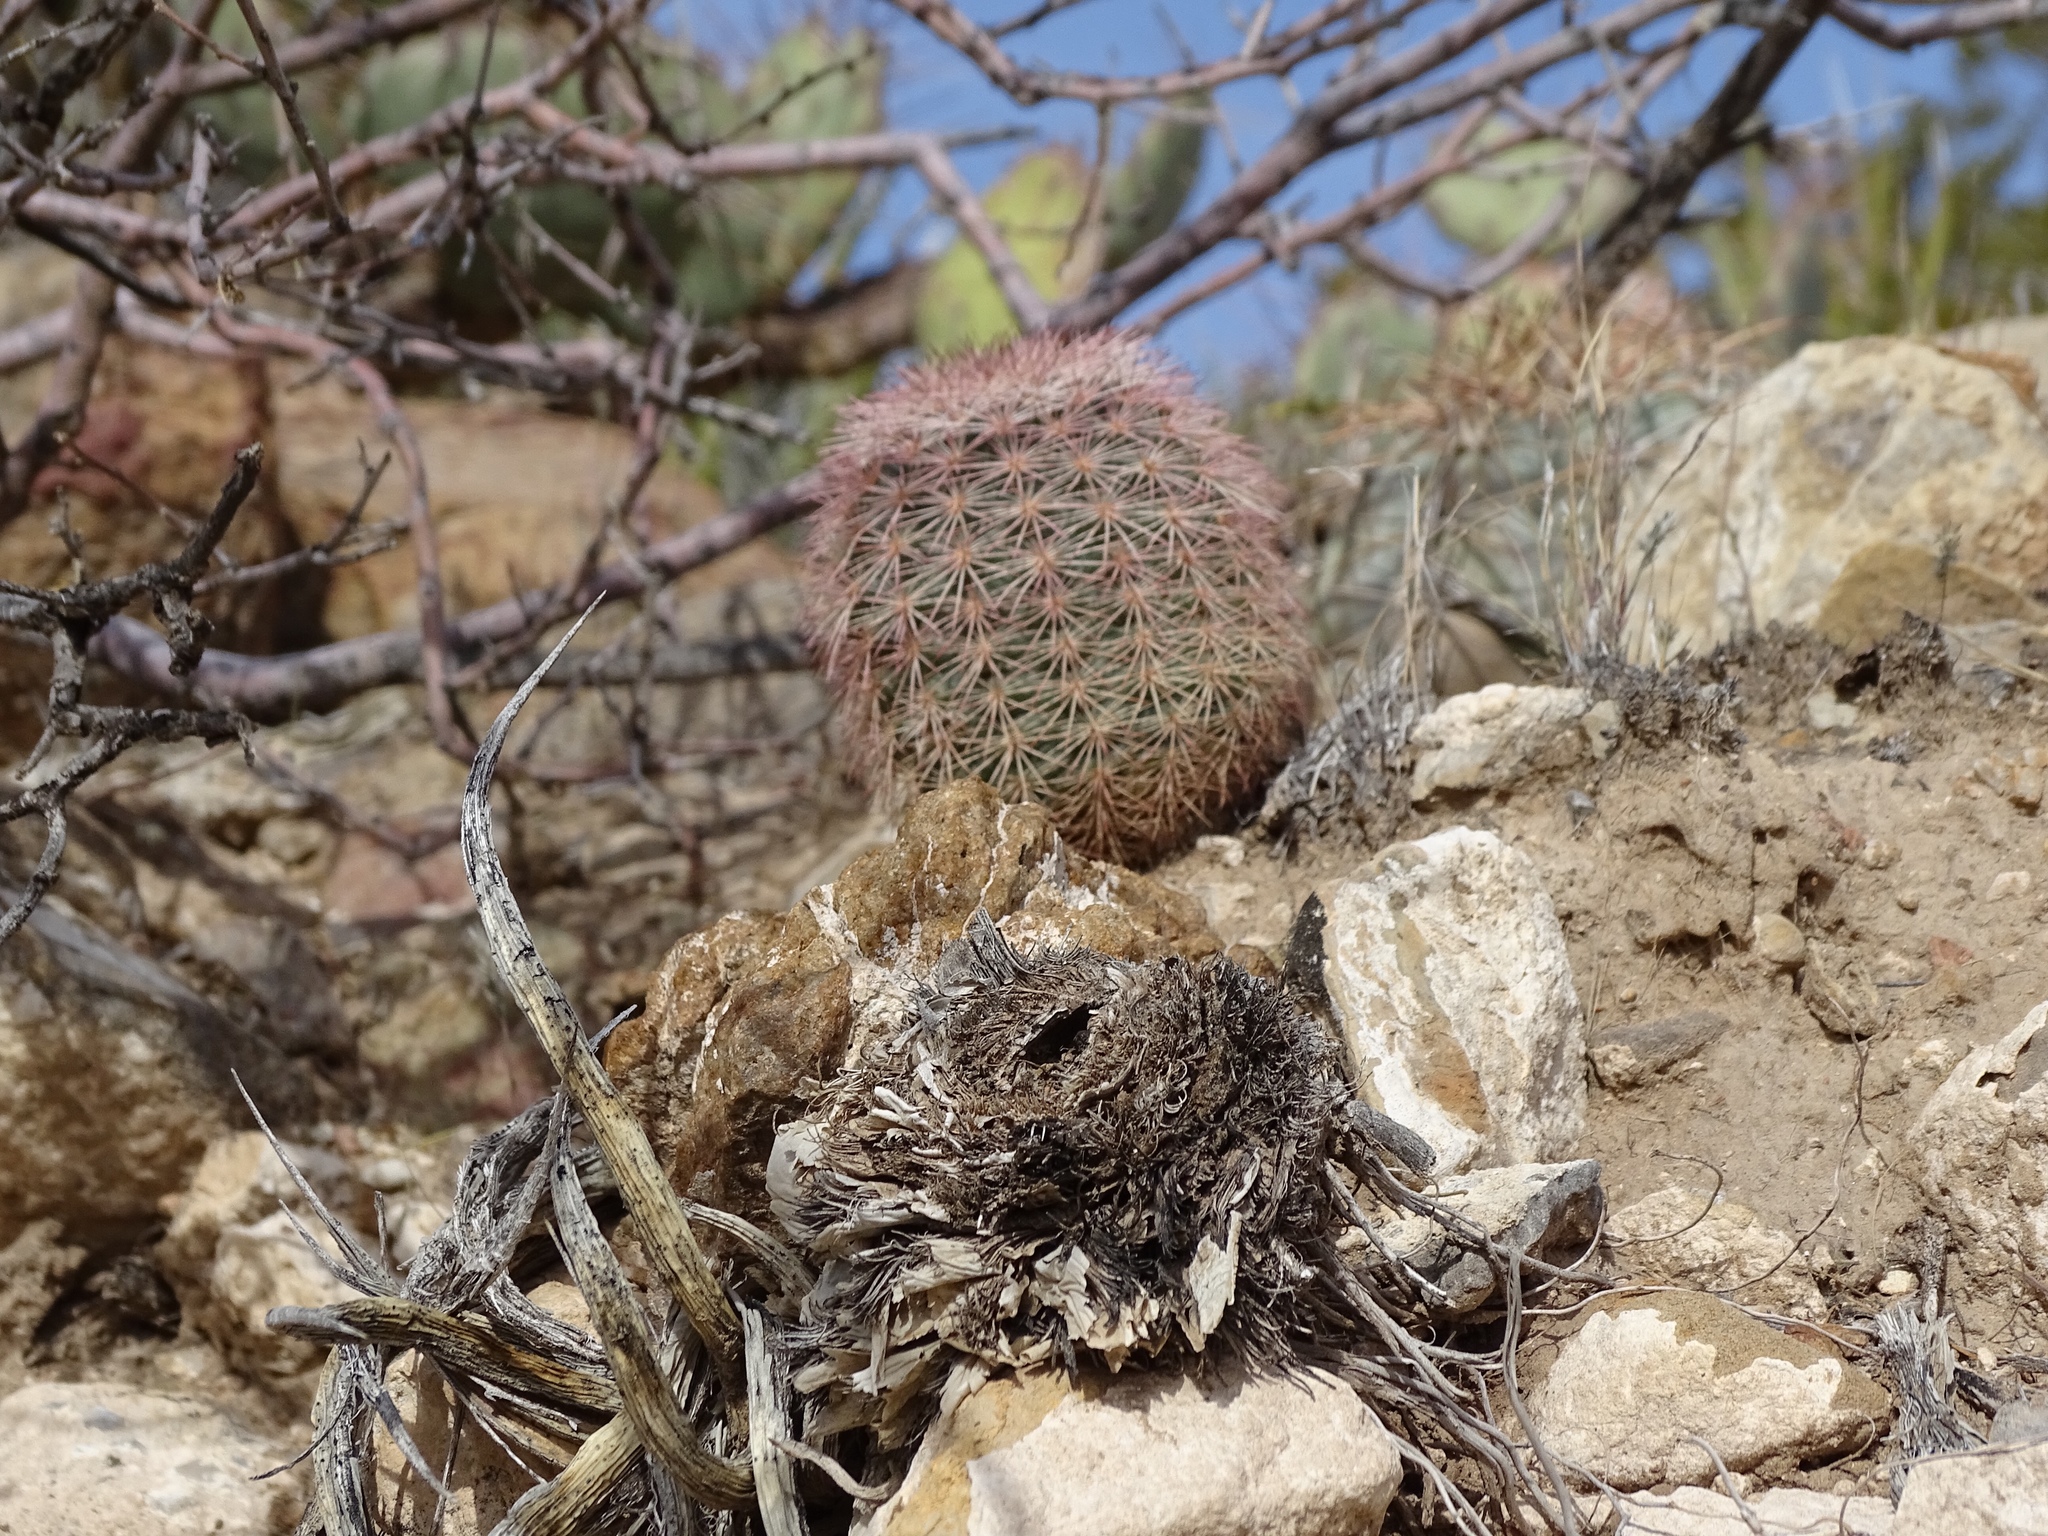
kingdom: Plantae
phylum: Tracheophyta
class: Magnoliopsida
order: Caryophyllales
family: Cactaceae
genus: Echinocereus
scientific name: Echinocereus dasyacanthus
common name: Spiny hedgehog cactus
